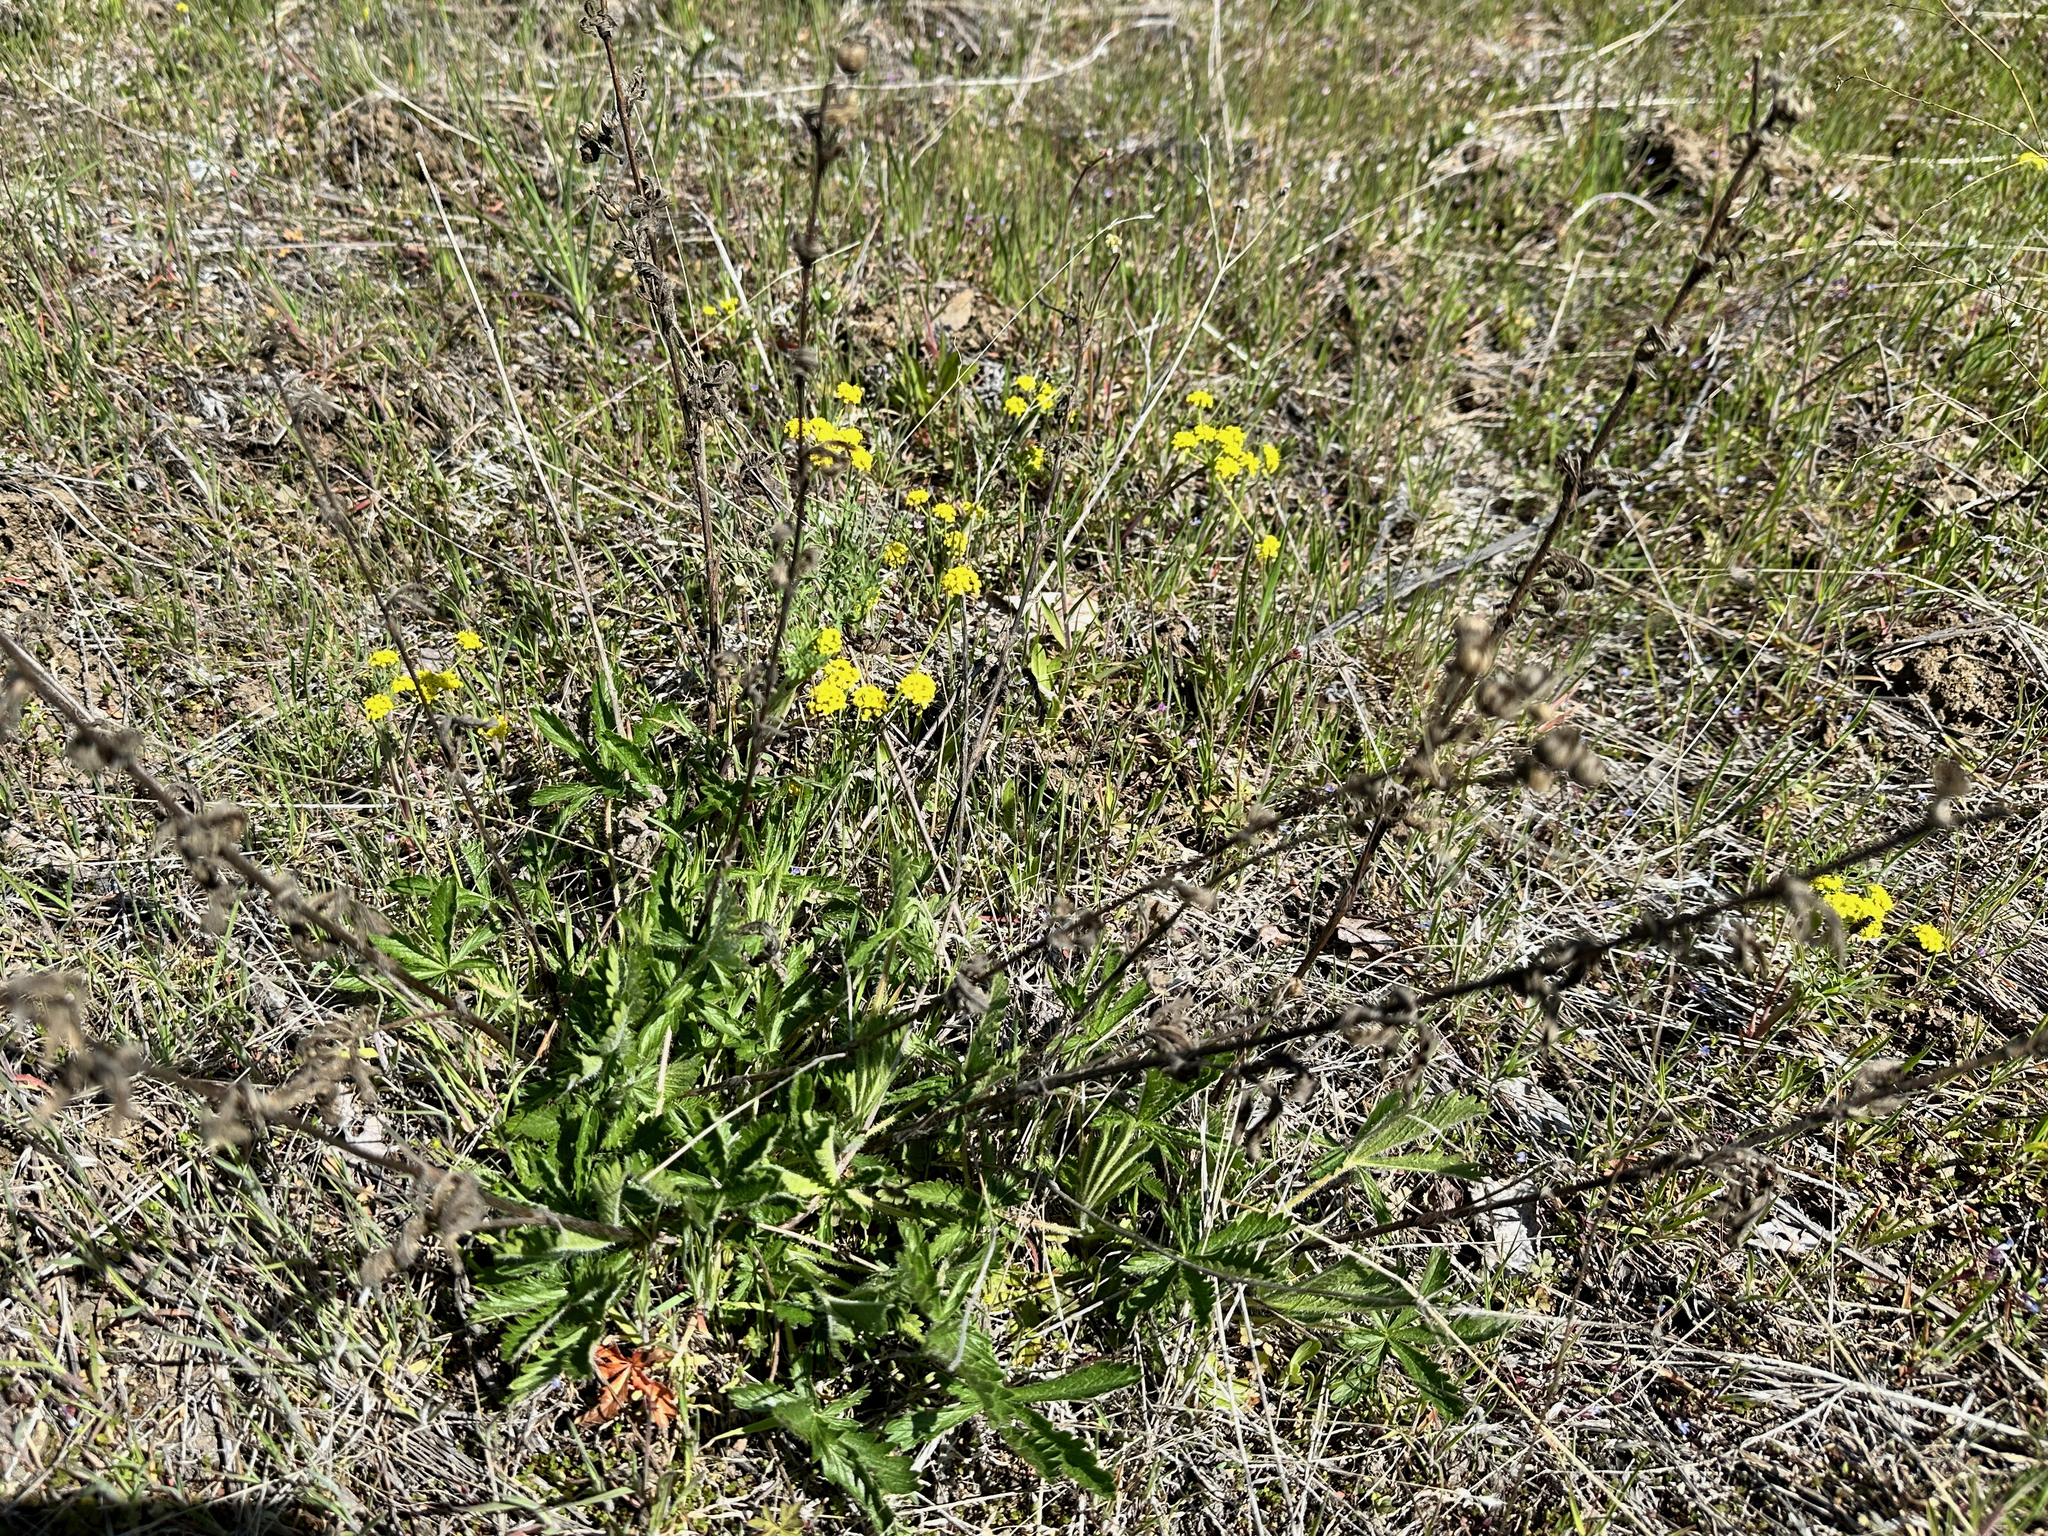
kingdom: Plantae
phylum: Tracheophyta
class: Magnoliopsida
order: Rosales
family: Rosaceae
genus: Potentilla
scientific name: Potentilla recta
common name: Sulphur cinquefoil
